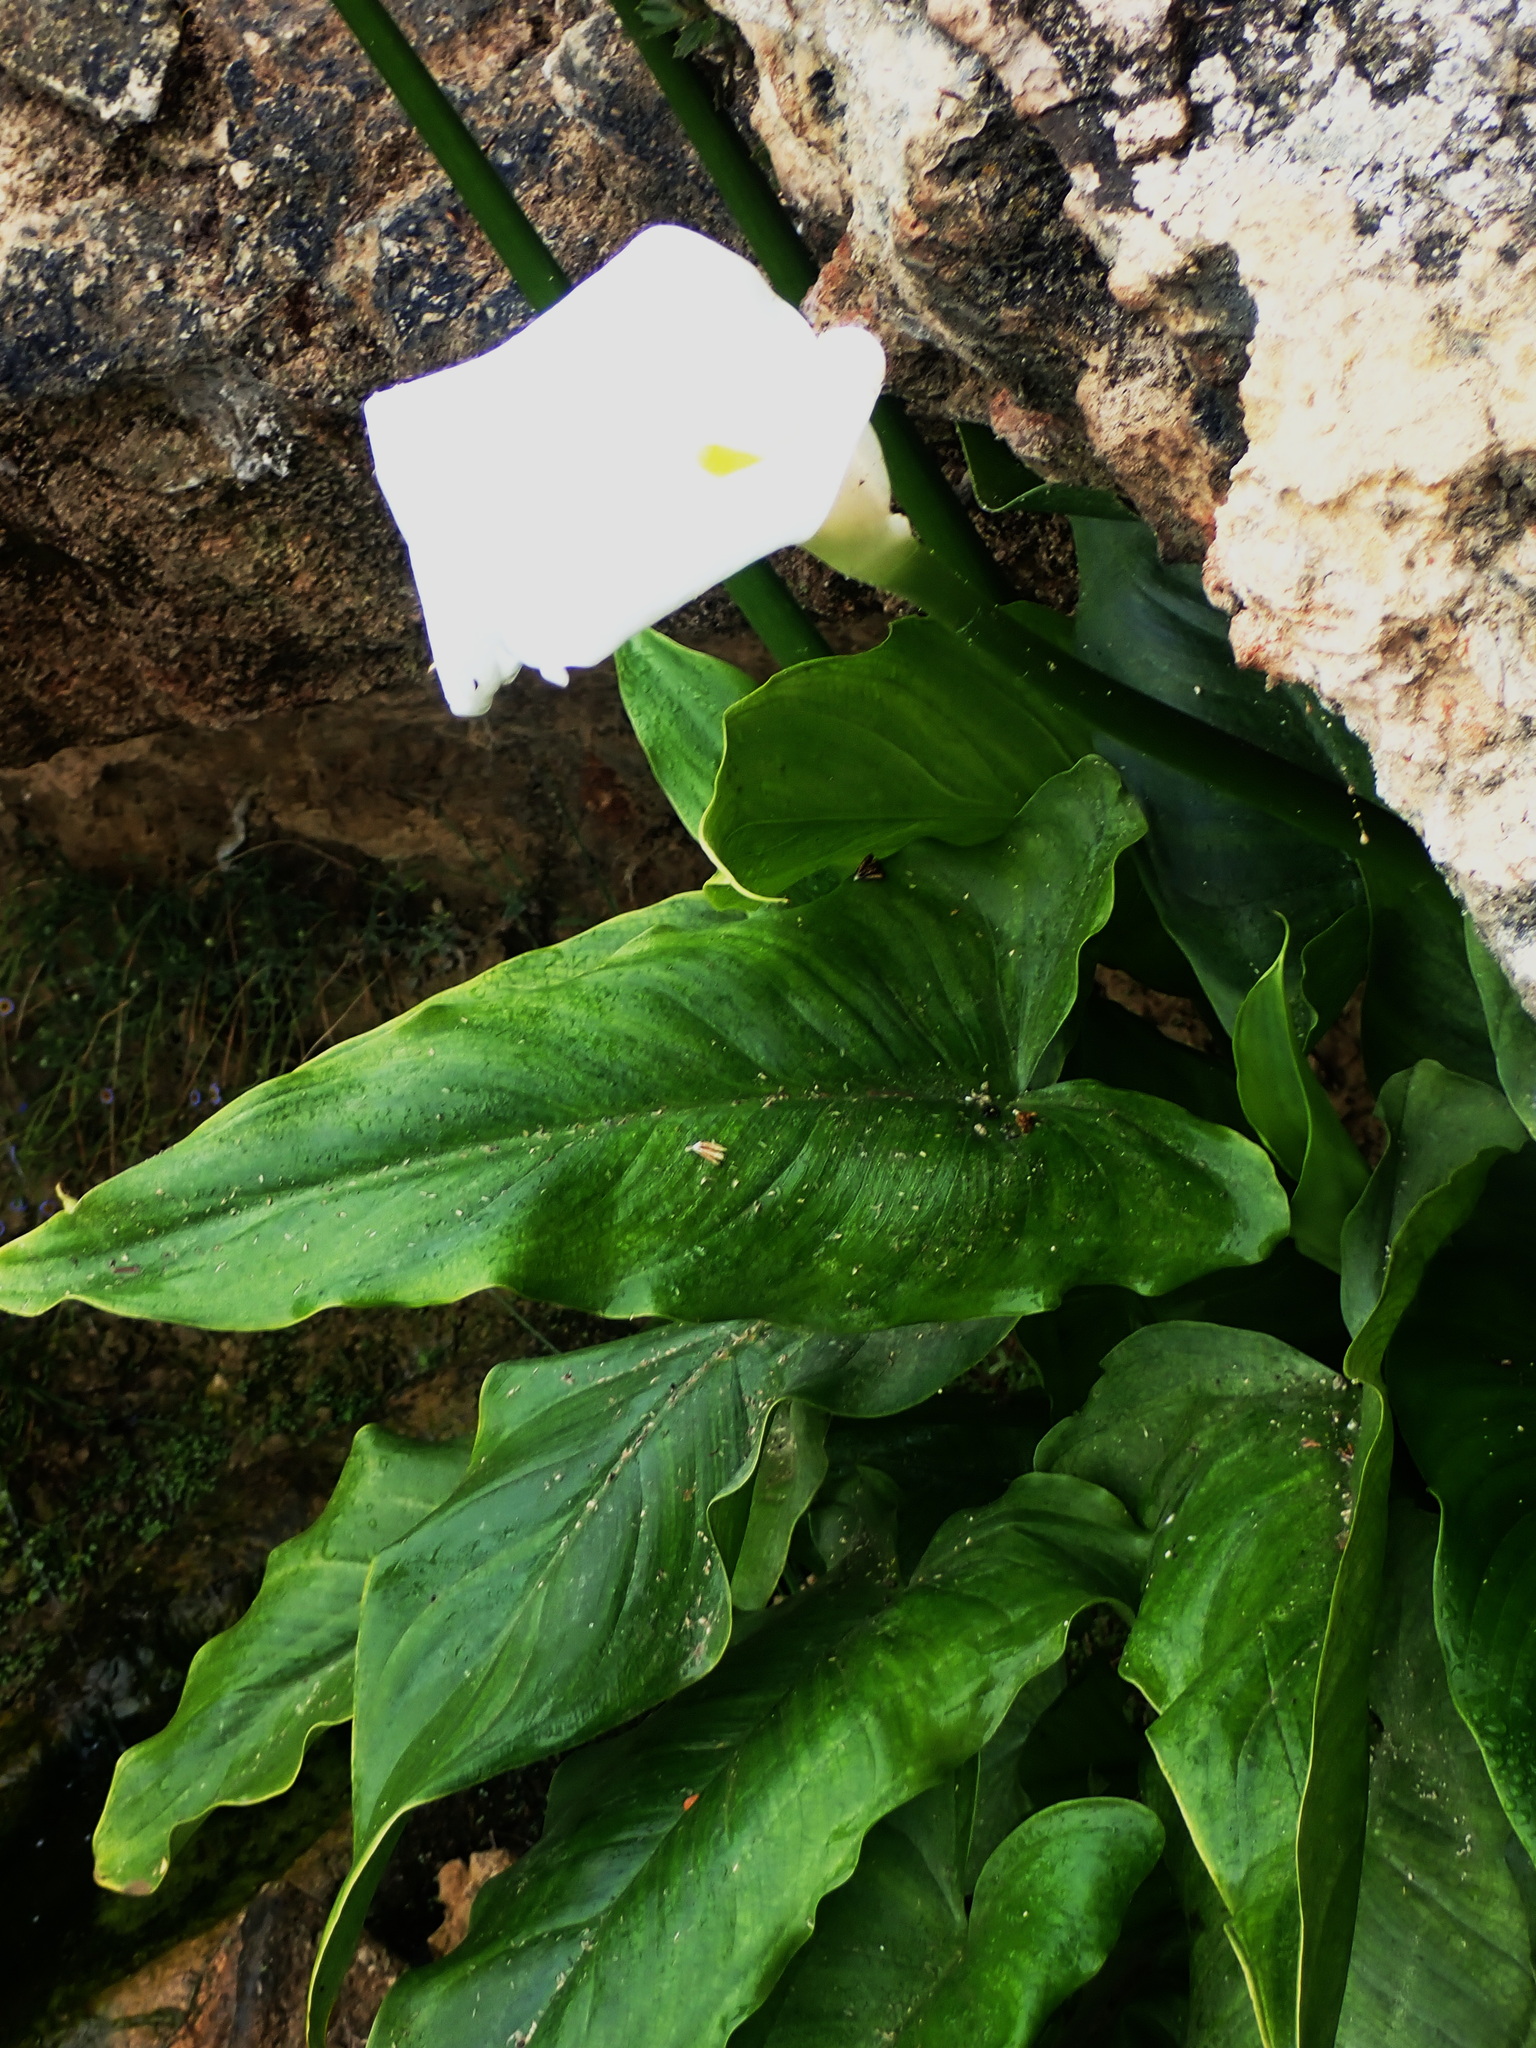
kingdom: Plantae
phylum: Tracheophyta
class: Liliopsida
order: Alismatales
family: Araceae
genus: Zantedeschia
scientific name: Zantedeschia aethiopica
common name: Altar-lily
